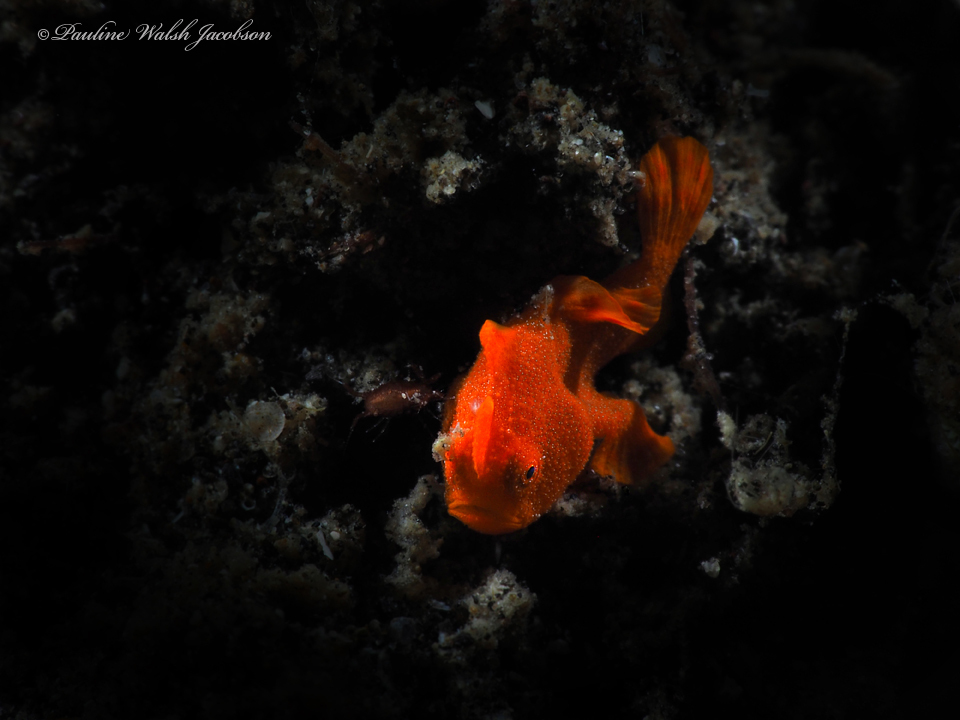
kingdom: Animalia
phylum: Chordata
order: Lophiiformes
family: Antennariidae
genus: Antennarius
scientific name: Antennarius pictus
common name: Painted frogfish
